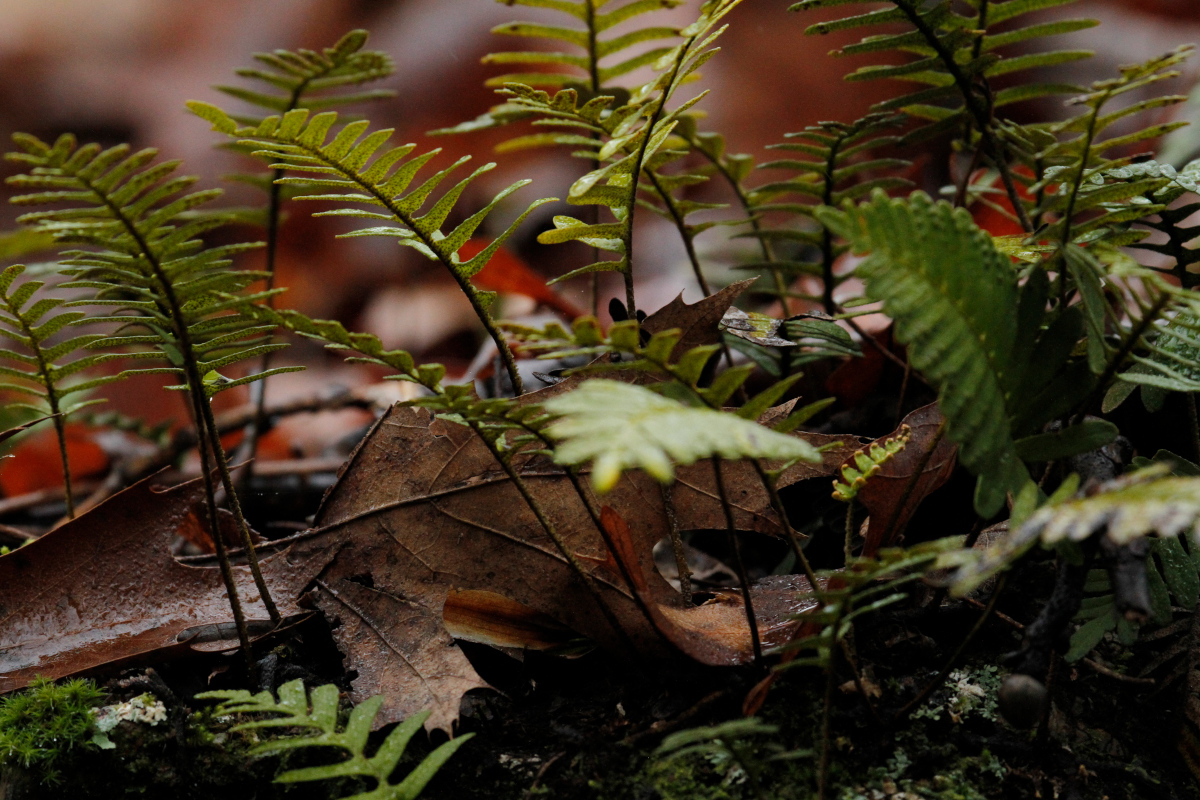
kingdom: Plantae
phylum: Tracheophyta
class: Polypodiopsida
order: Polypodiales
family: Polypodiaceae
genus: Pleopeltis
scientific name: Pleopeltis michauxiana
